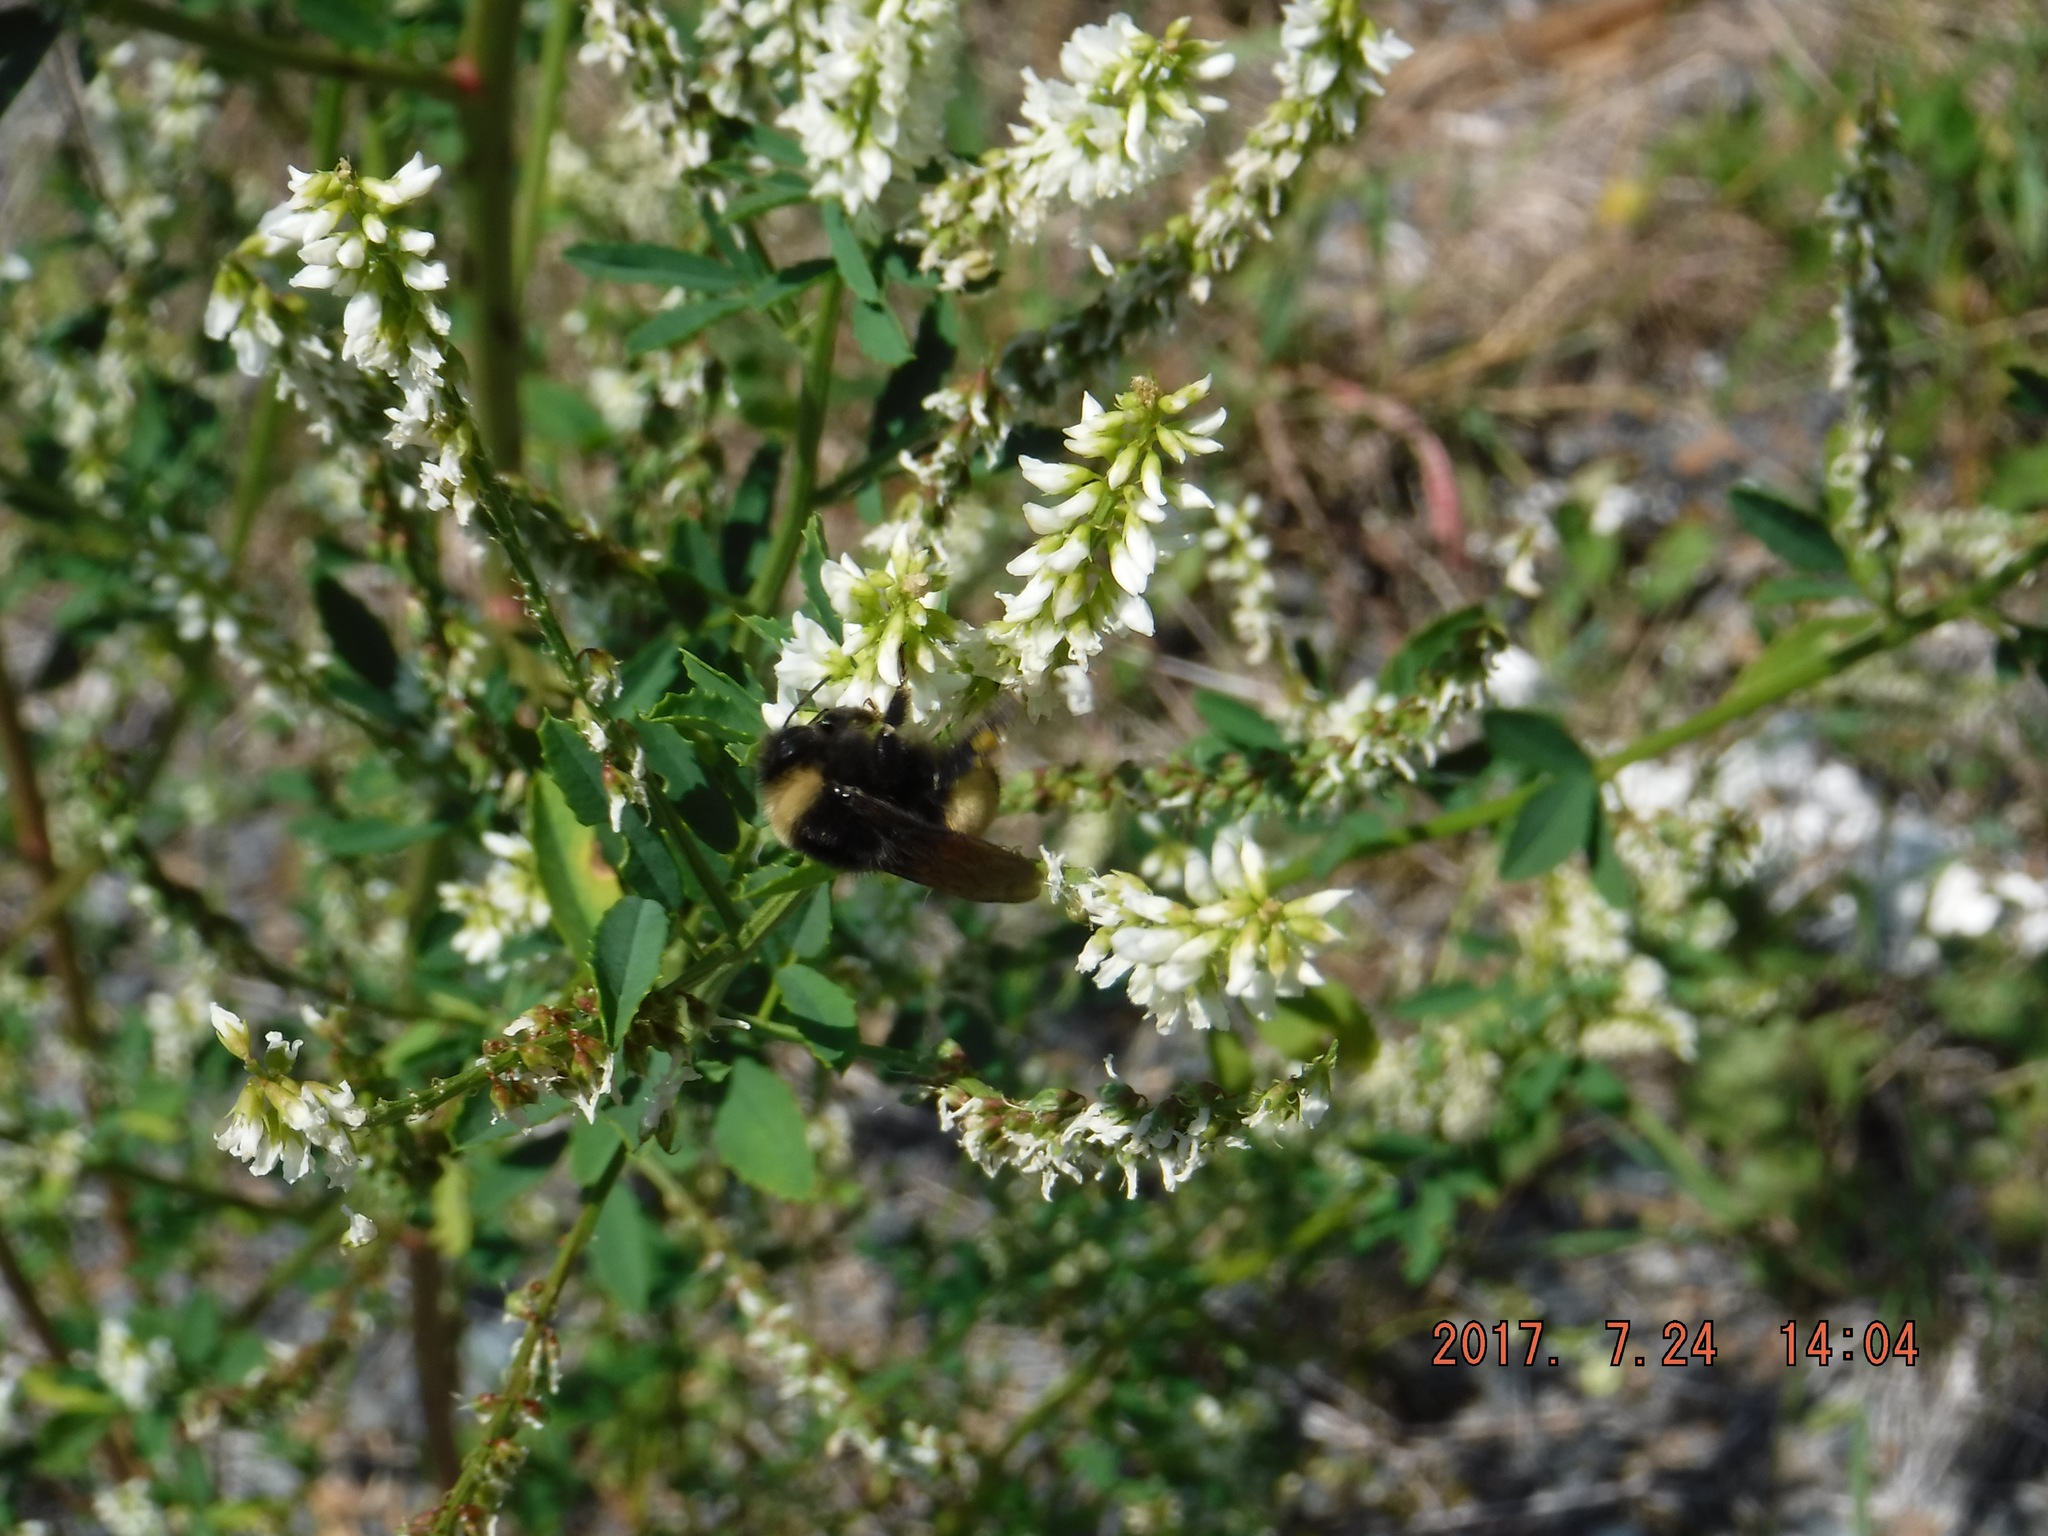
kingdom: Animalia
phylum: Arthropoda
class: Insecta
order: Hymenoptera
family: Apidae
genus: Bombus
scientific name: Bombus terricola
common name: Yellow-banded bumble bee
